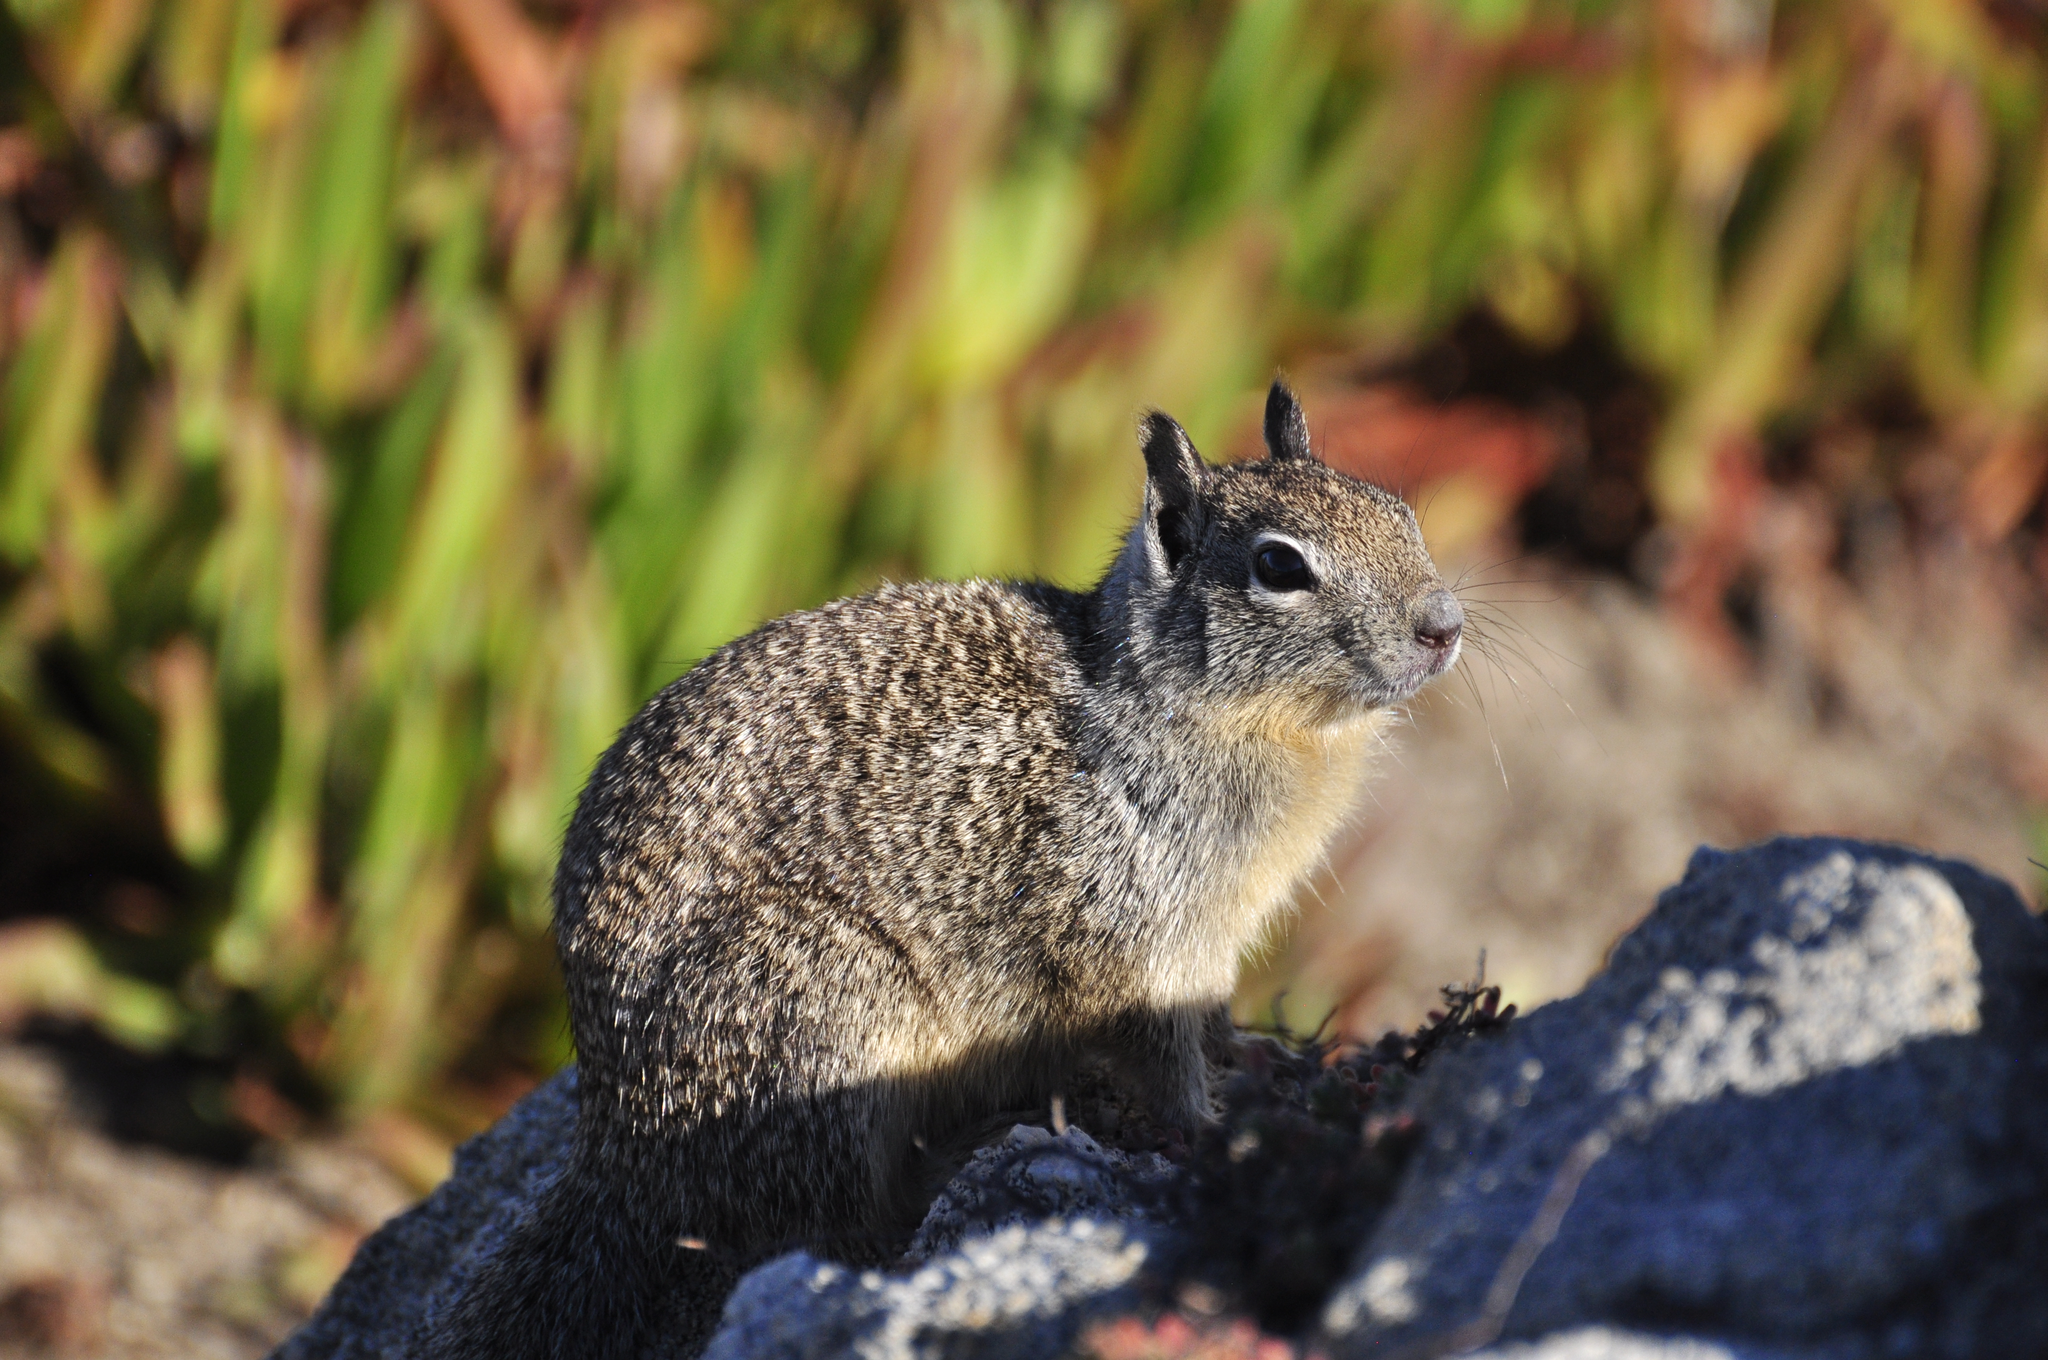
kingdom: Animalia
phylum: Chordata
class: Mammalia
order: Rodentia
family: Sciuridae
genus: Otospermophilus
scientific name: Otospermophilus beecheyi
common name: California ground squirrel
